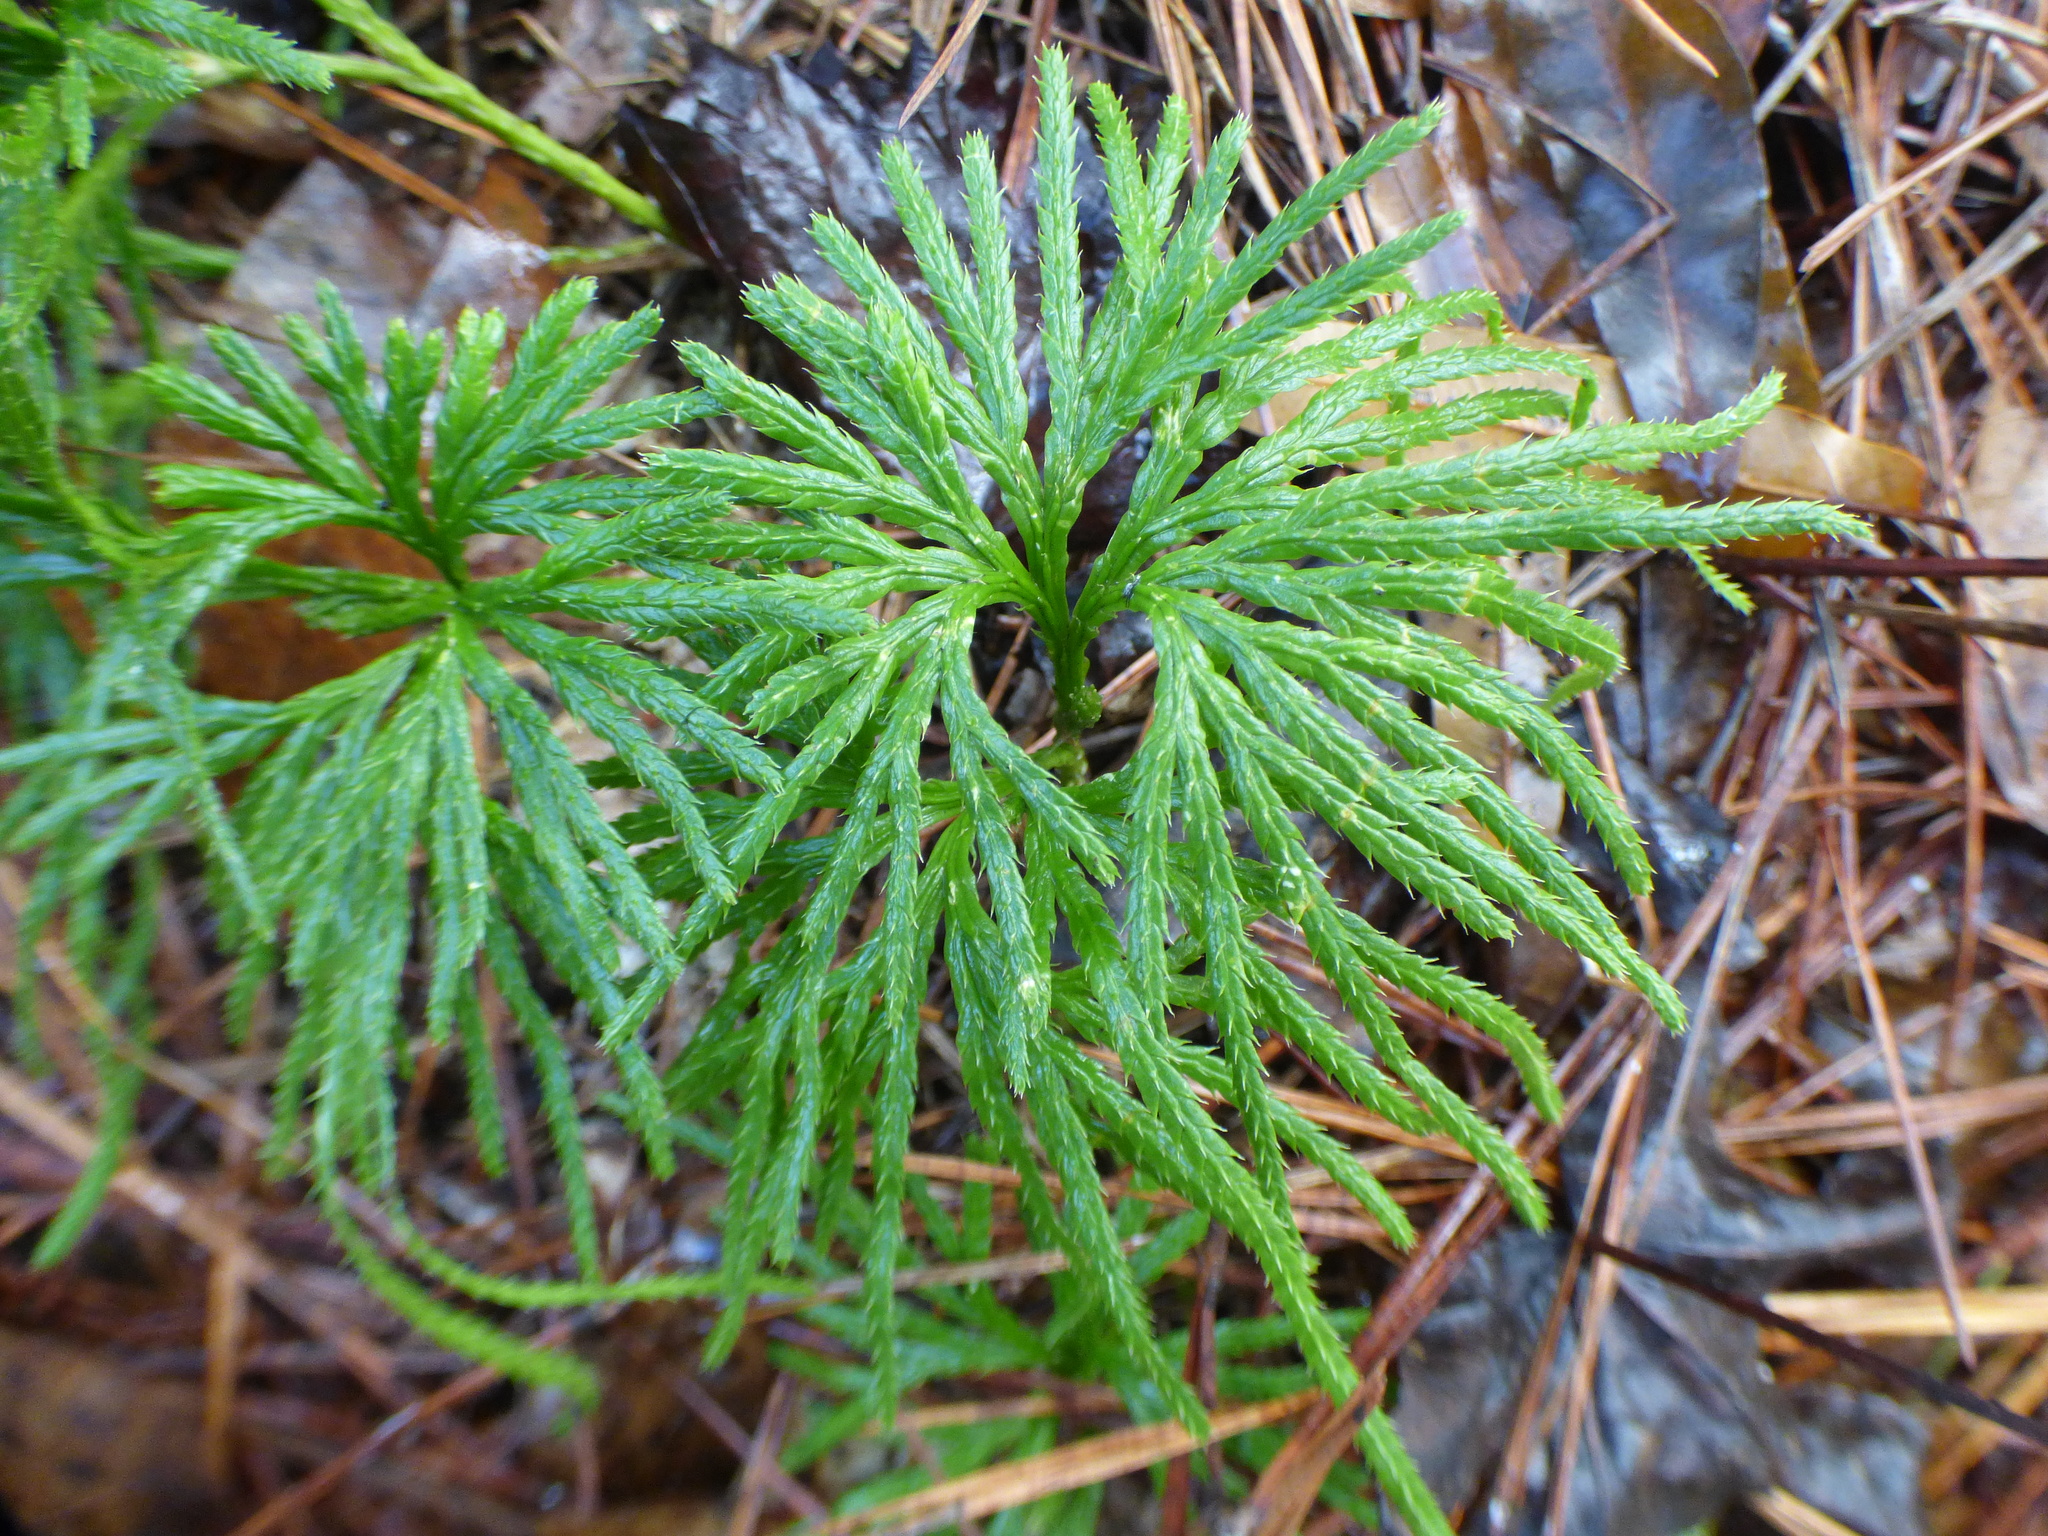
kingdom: Plantae
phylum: Tracheophyta
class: Lycopodiopsida
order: Lycopodiales
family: Lycopodiaceae
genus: Diphasiastrum
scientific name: Diphasiastrum digitatum
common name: Southern running-pine
